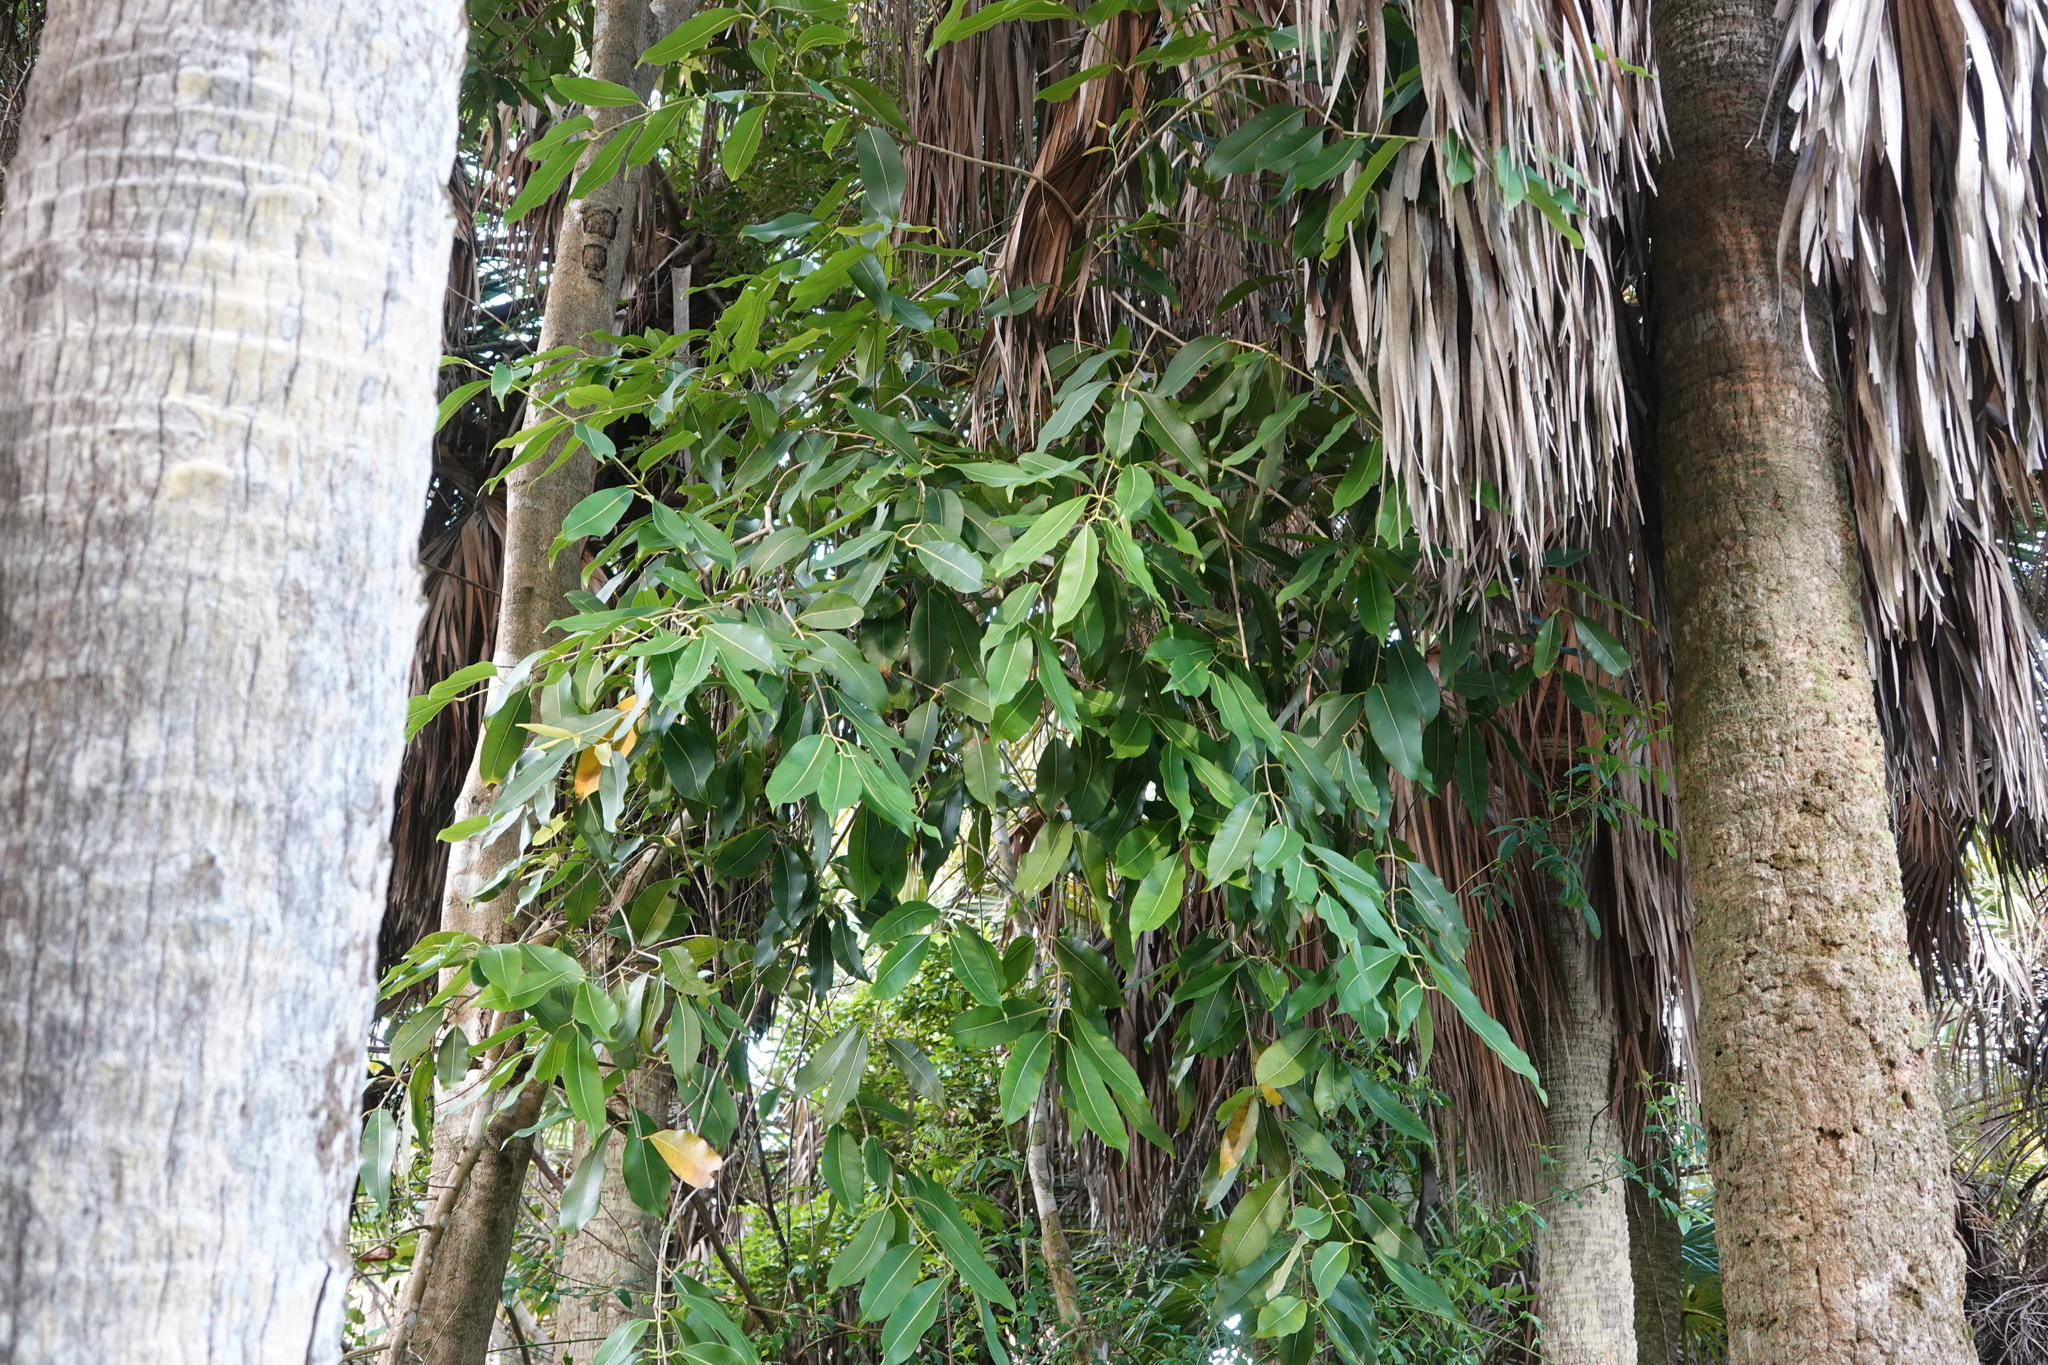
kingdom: Plantae
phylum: Tracheophyta
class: Magnoliopsida
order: Myrtales
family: Myrtaceae
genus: Syzygium
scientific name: Syzygium cumini
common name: Java plum
